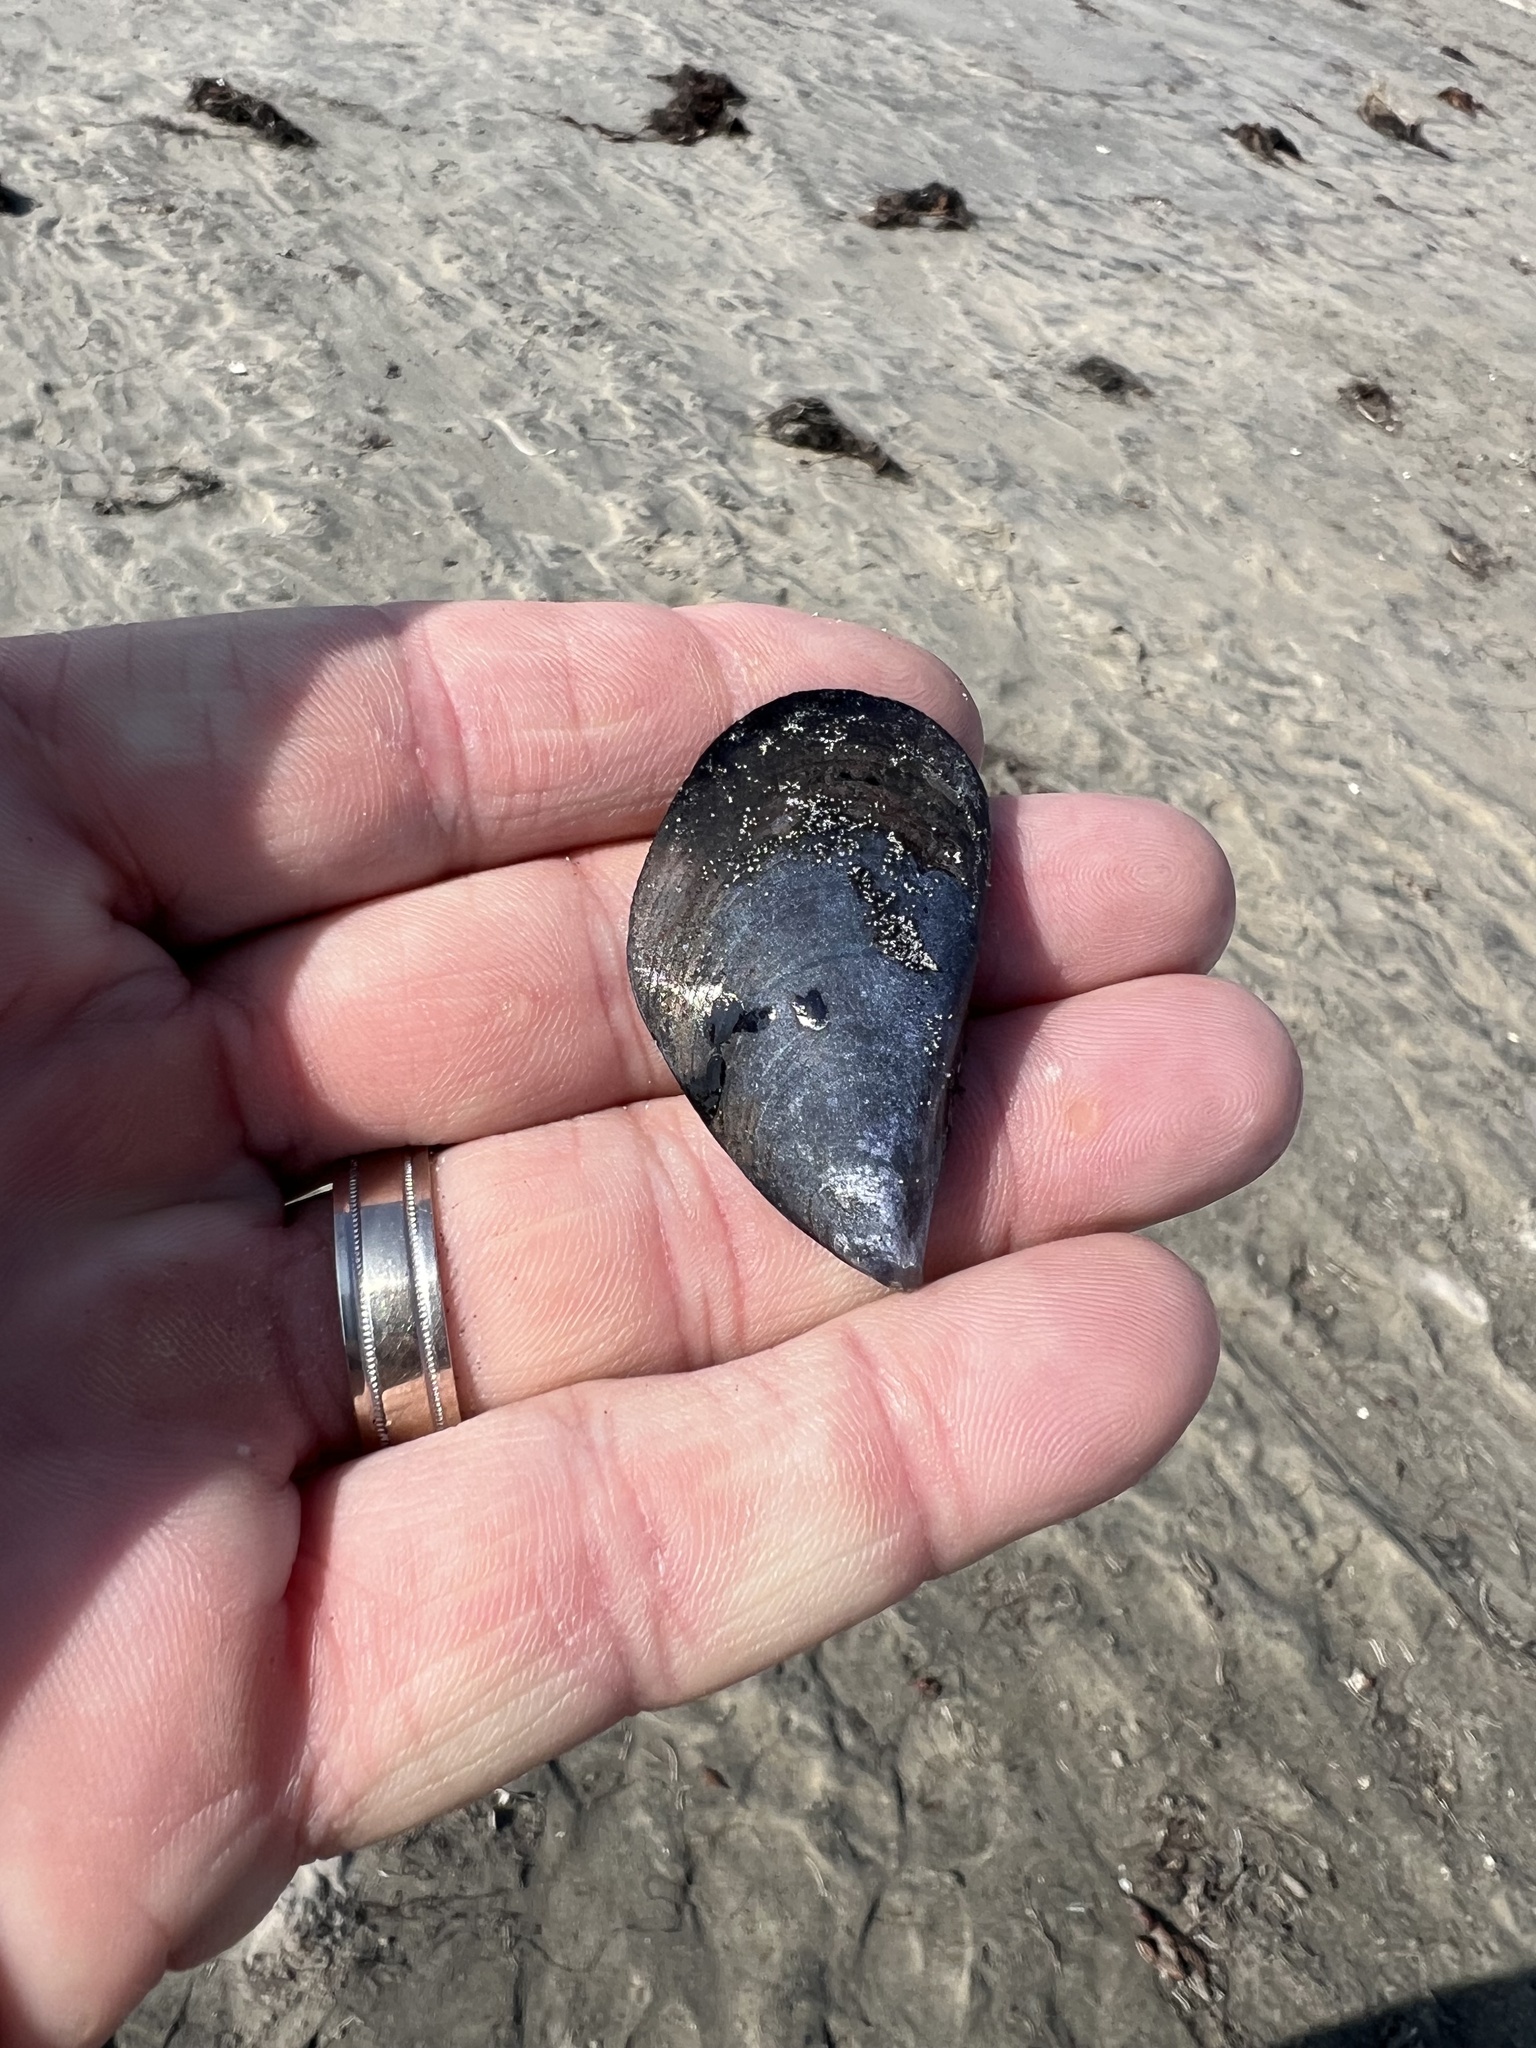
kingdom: Animalia
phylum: Mollusca
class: Bivalvia
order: Mytilida
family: Mytilidae
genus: Mytilus
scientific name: Mytilus galloprovincialis
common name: Mediterranean mussel
